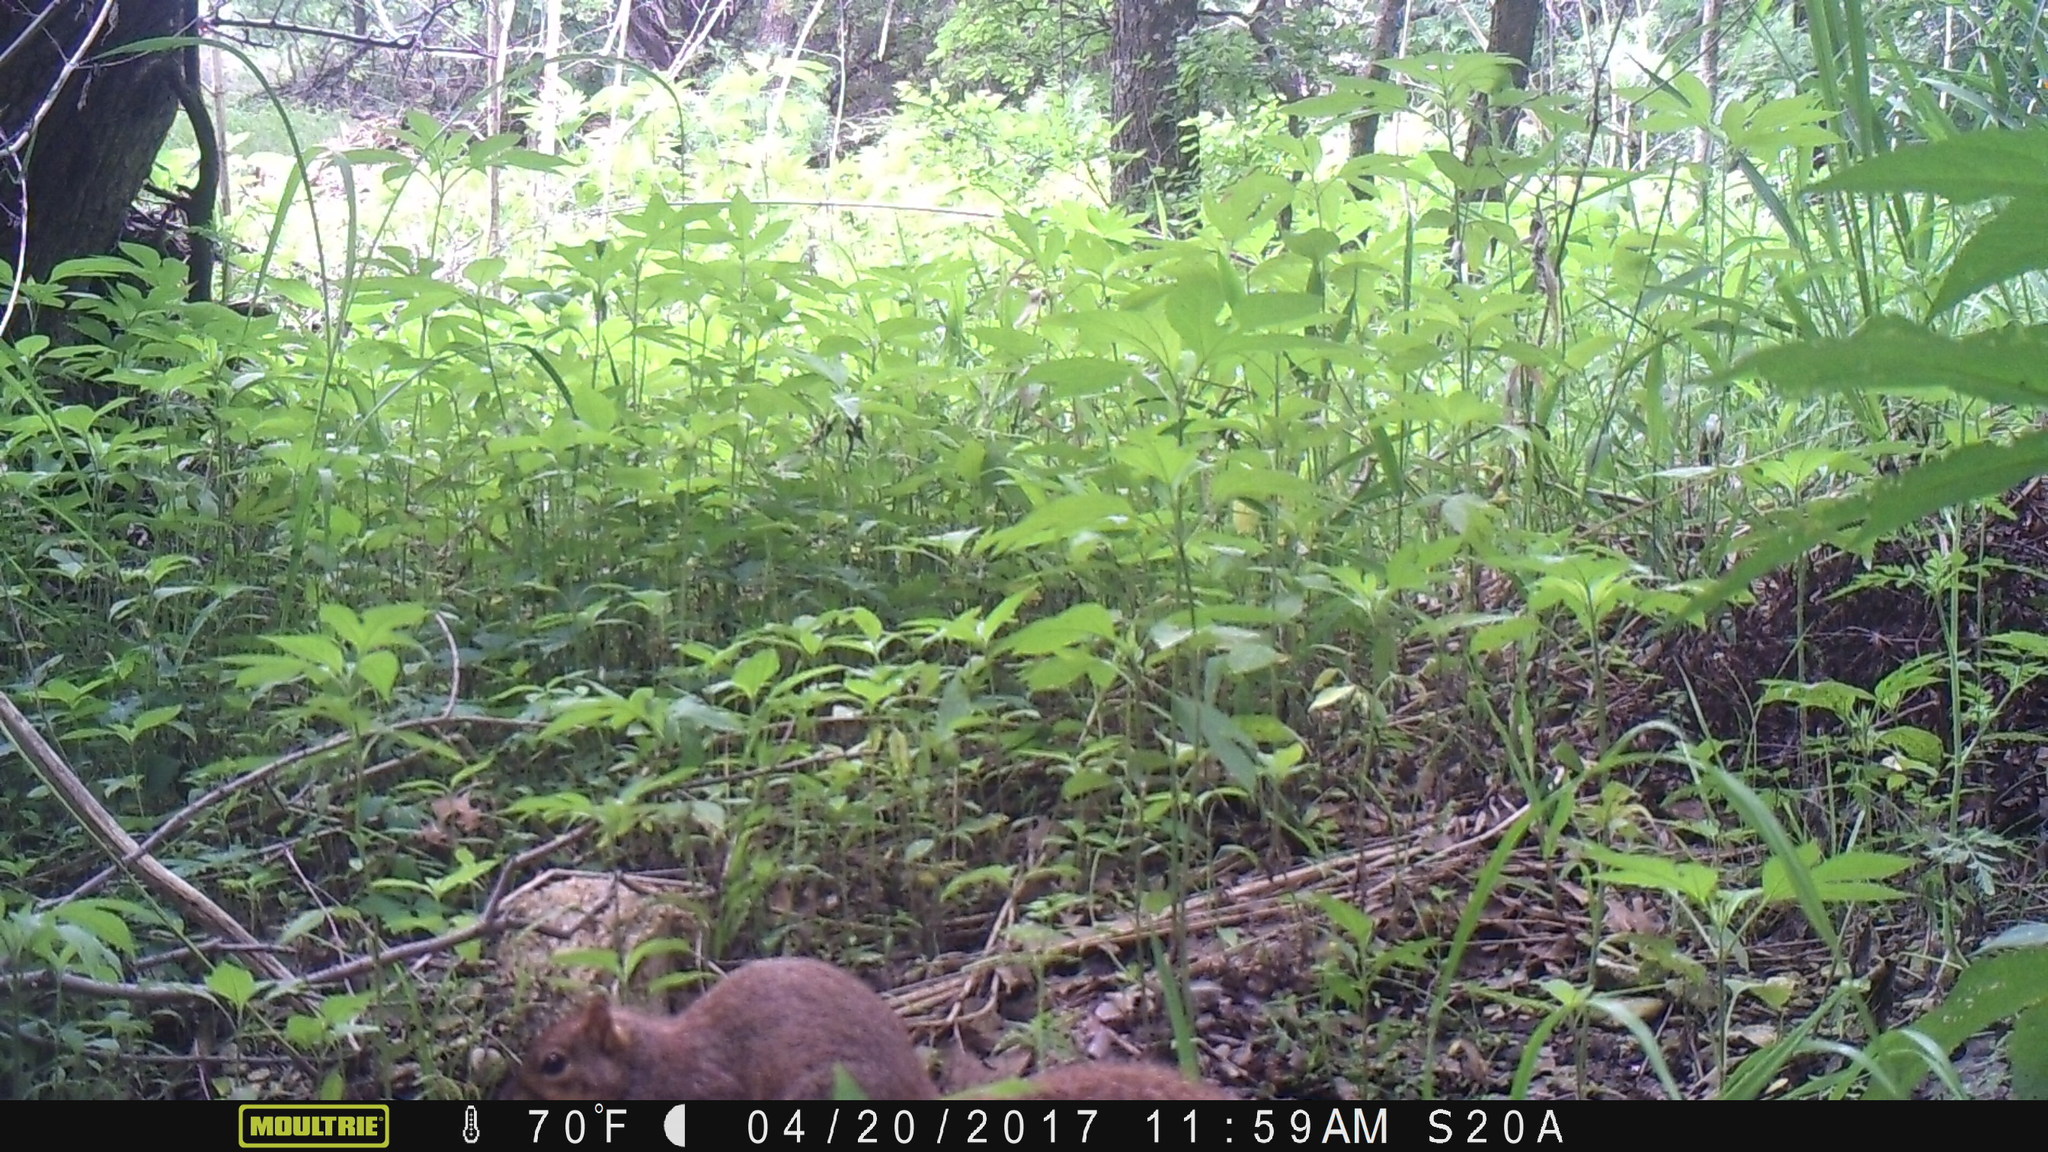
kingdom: Animalia
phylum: Chordata
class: Mammalia
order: Rodentia
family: Sciuridae
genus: Sciurus
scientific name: Sciurus niger
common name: Fox squirrel
